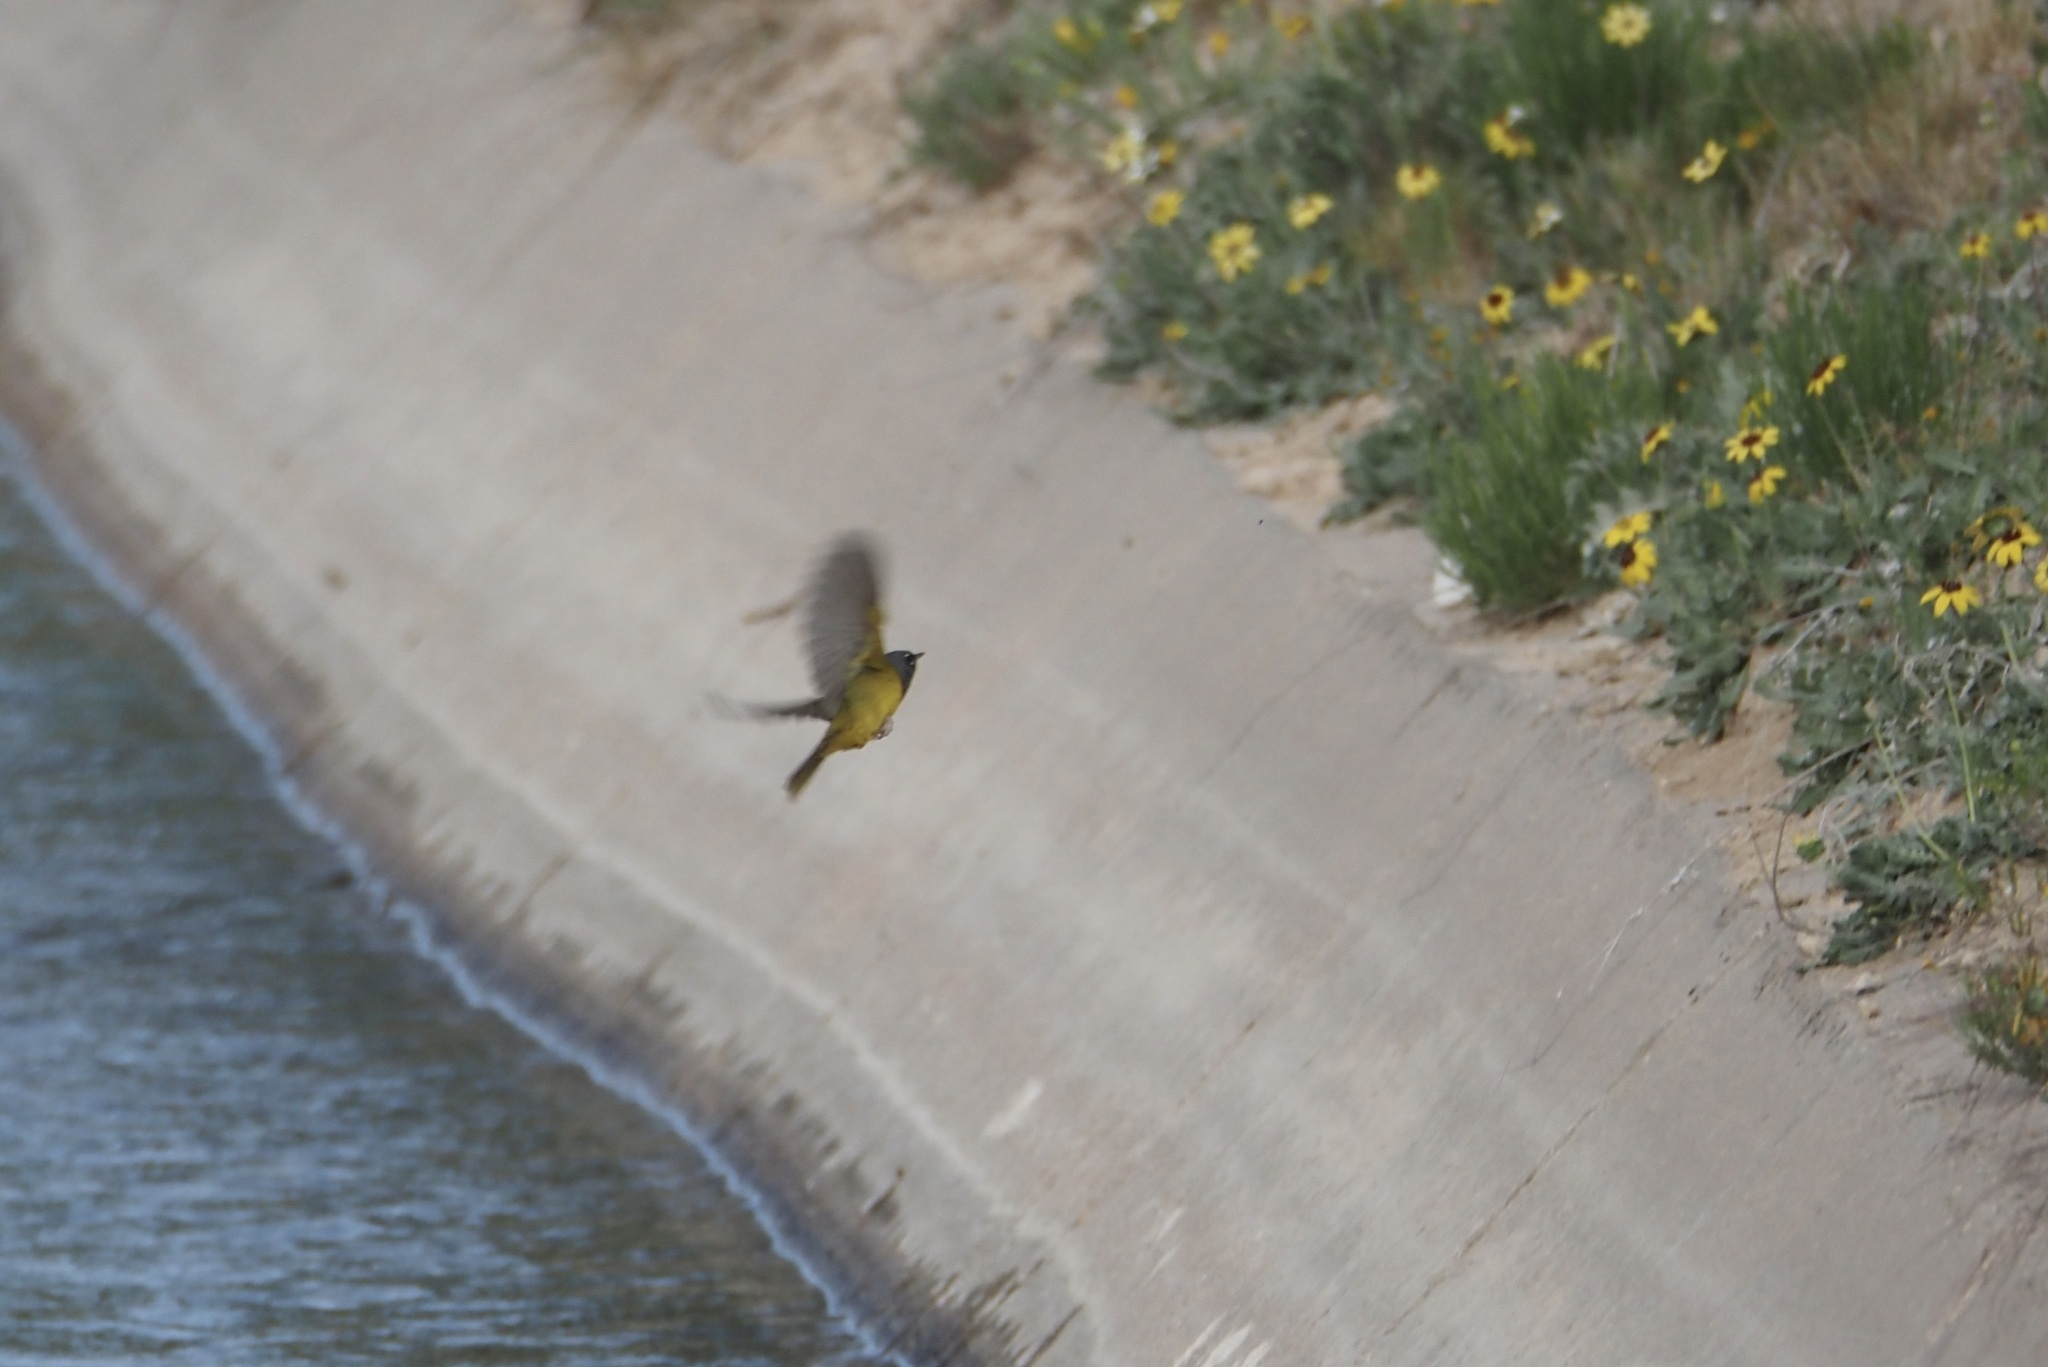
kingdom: Animalia
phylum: Chordata
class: Aves
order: Passeriformes
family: Parulidae
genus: Geothlypis
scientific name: Geothlypis tolmiei
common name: Macgillivray's warbler
